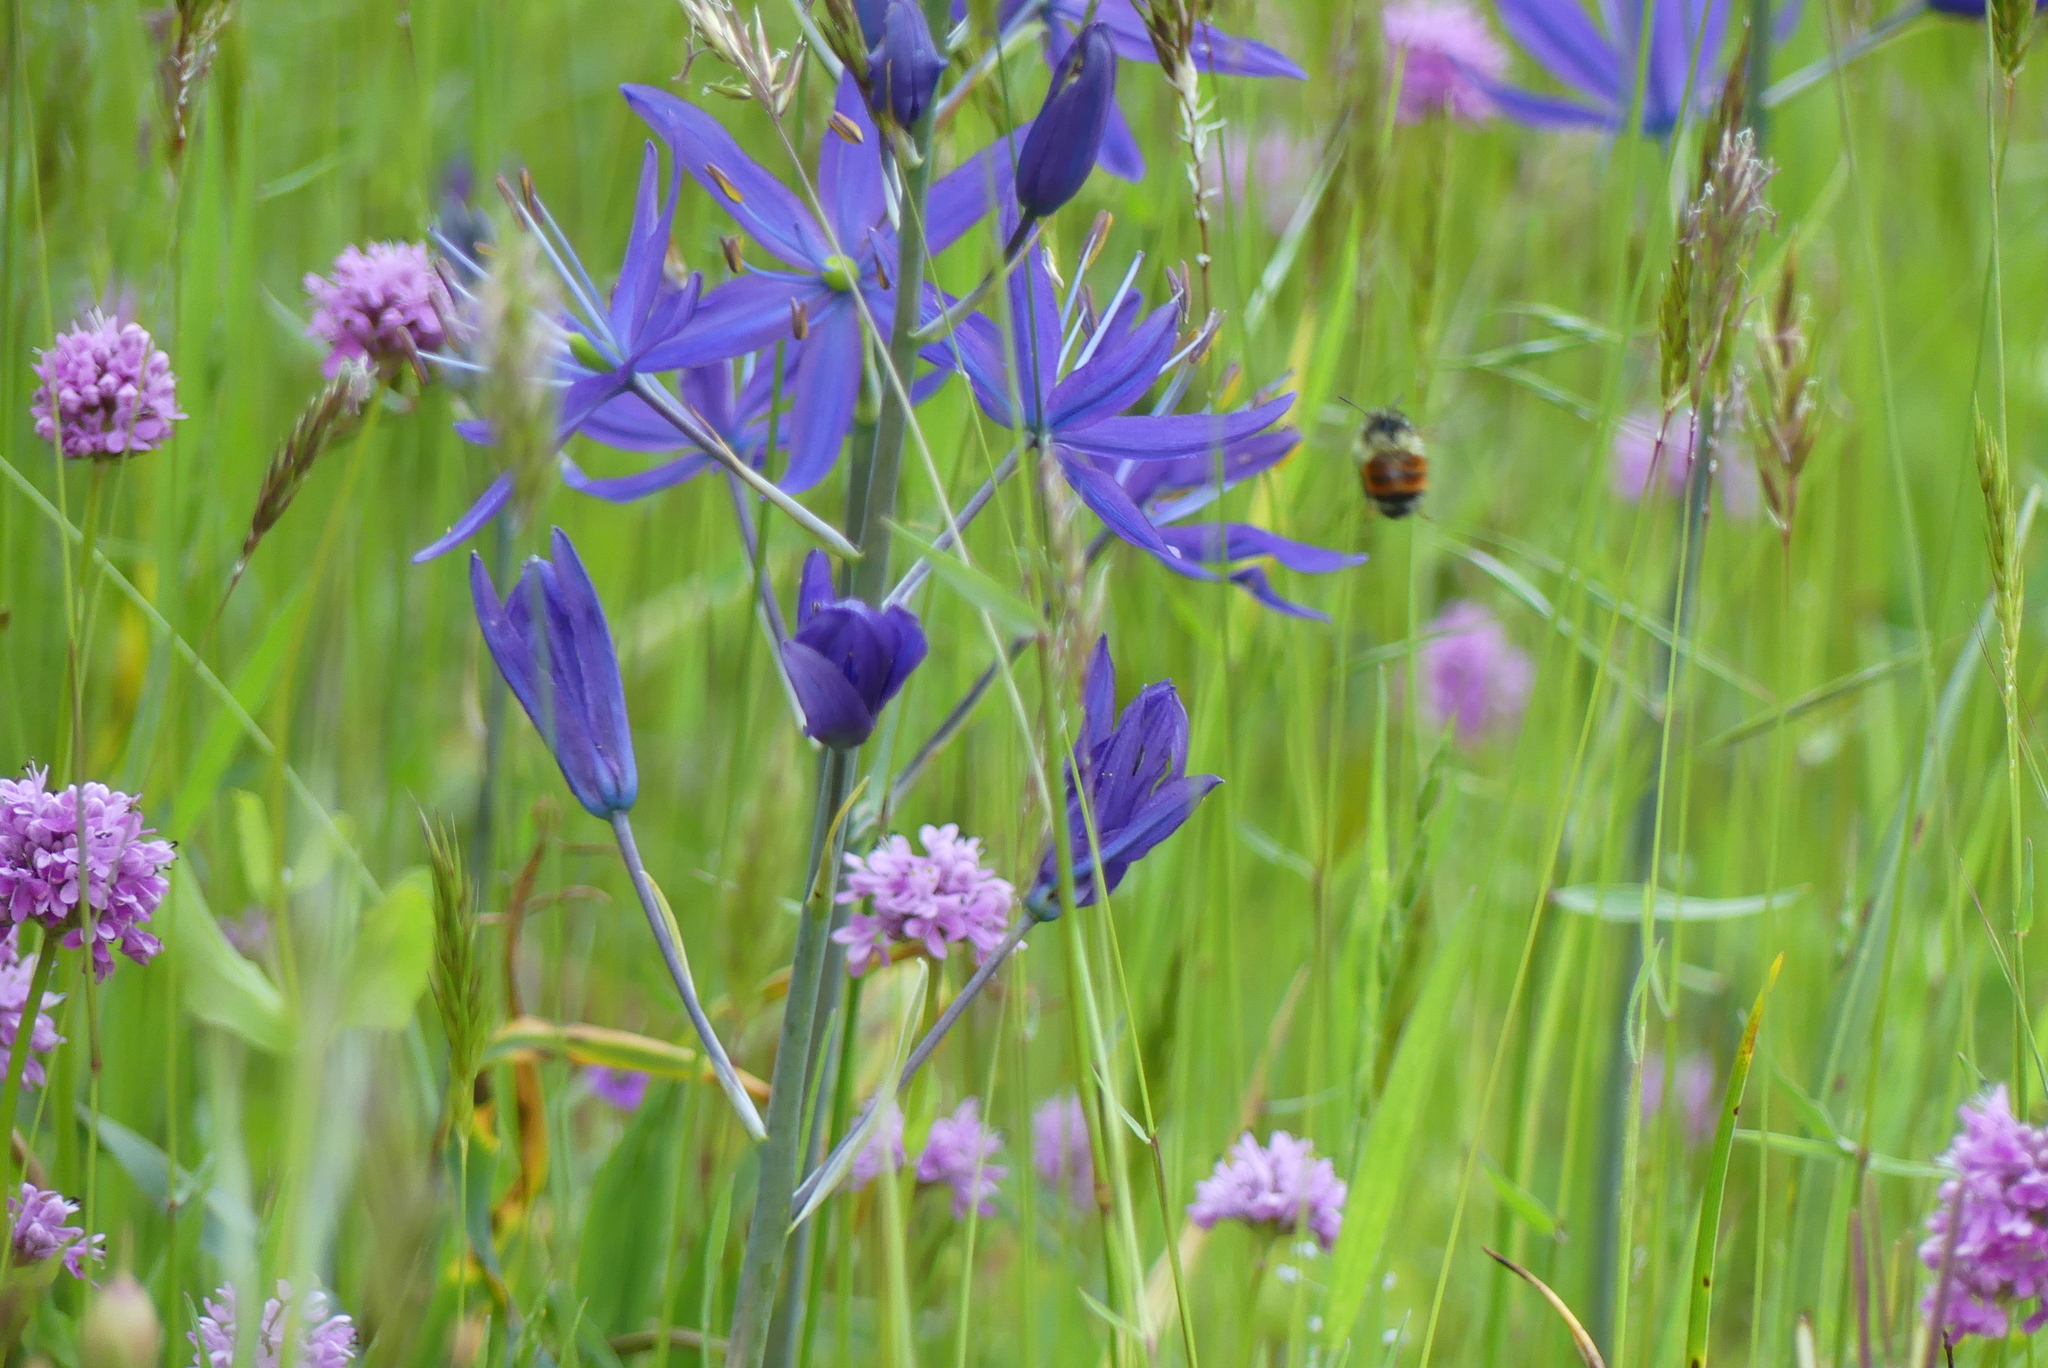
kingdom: Animalia
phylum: Arthropoda
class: Insecta
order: Hymenoptera
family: Apidae
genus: Bombus
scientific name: Bombus melanopygus
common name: Black tail bumble bee
